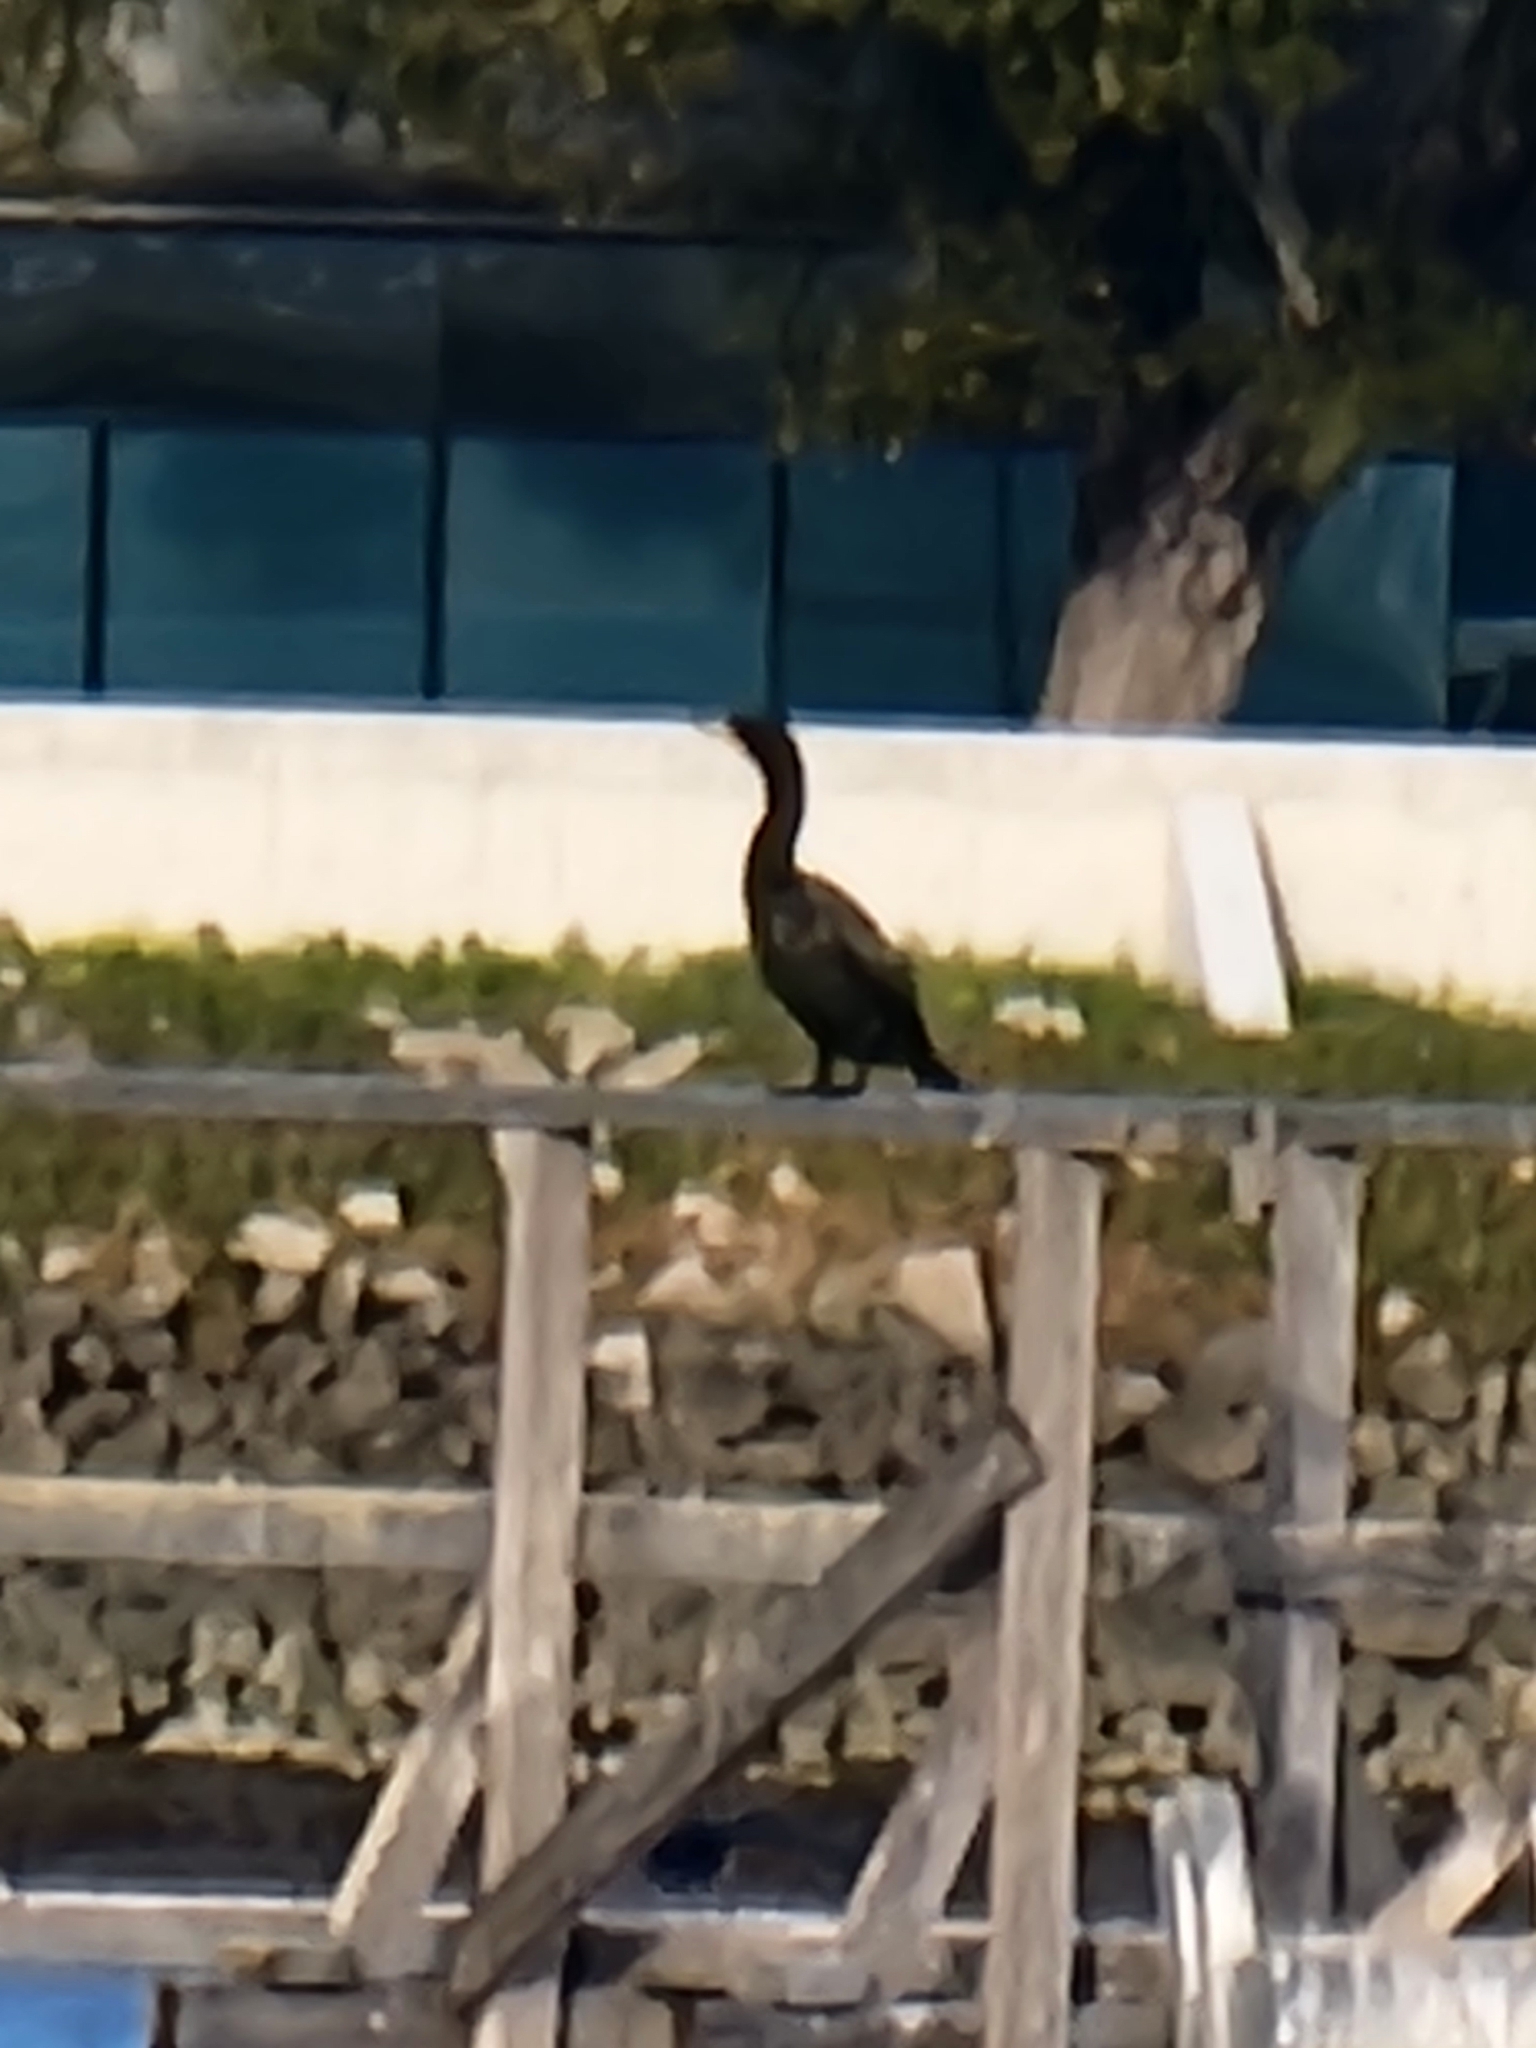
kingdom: Animalia
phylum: Chordata
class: Aves
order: Suliformes
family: Phalacrocoracidae
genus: Phalacrocorax
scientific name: Phalacrocorax auritus
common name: Double-crested cormorant
